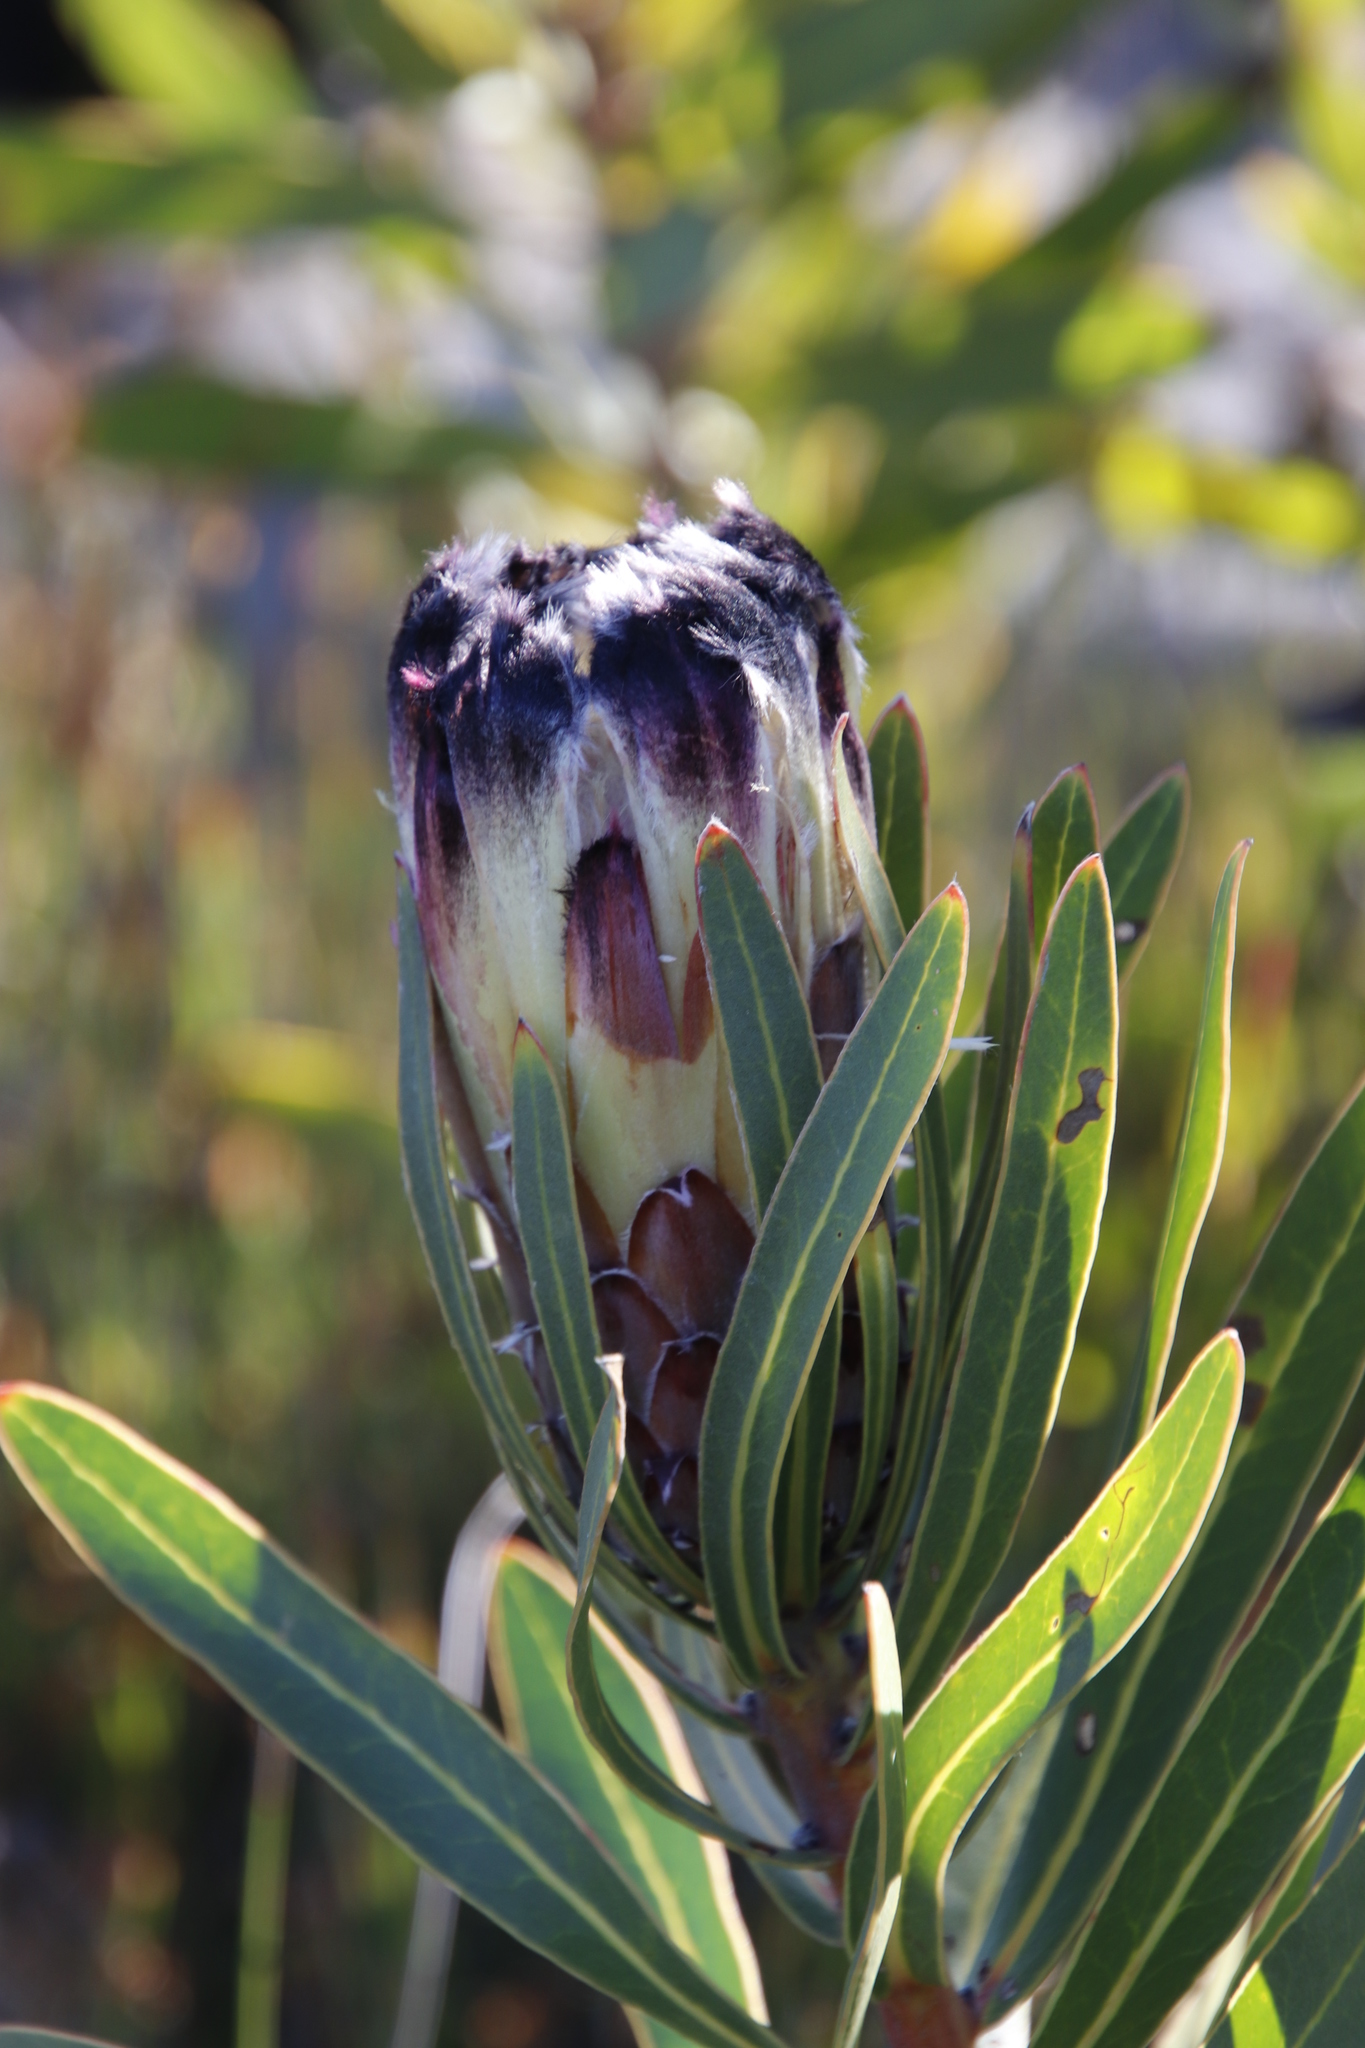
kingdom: Plantae
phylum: Tracheophyta
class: Magnoliopsida
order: Proteales
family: Proteaceae
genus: Protea
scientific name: Protea lepidocarpodendron
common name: Black-bearded protea
